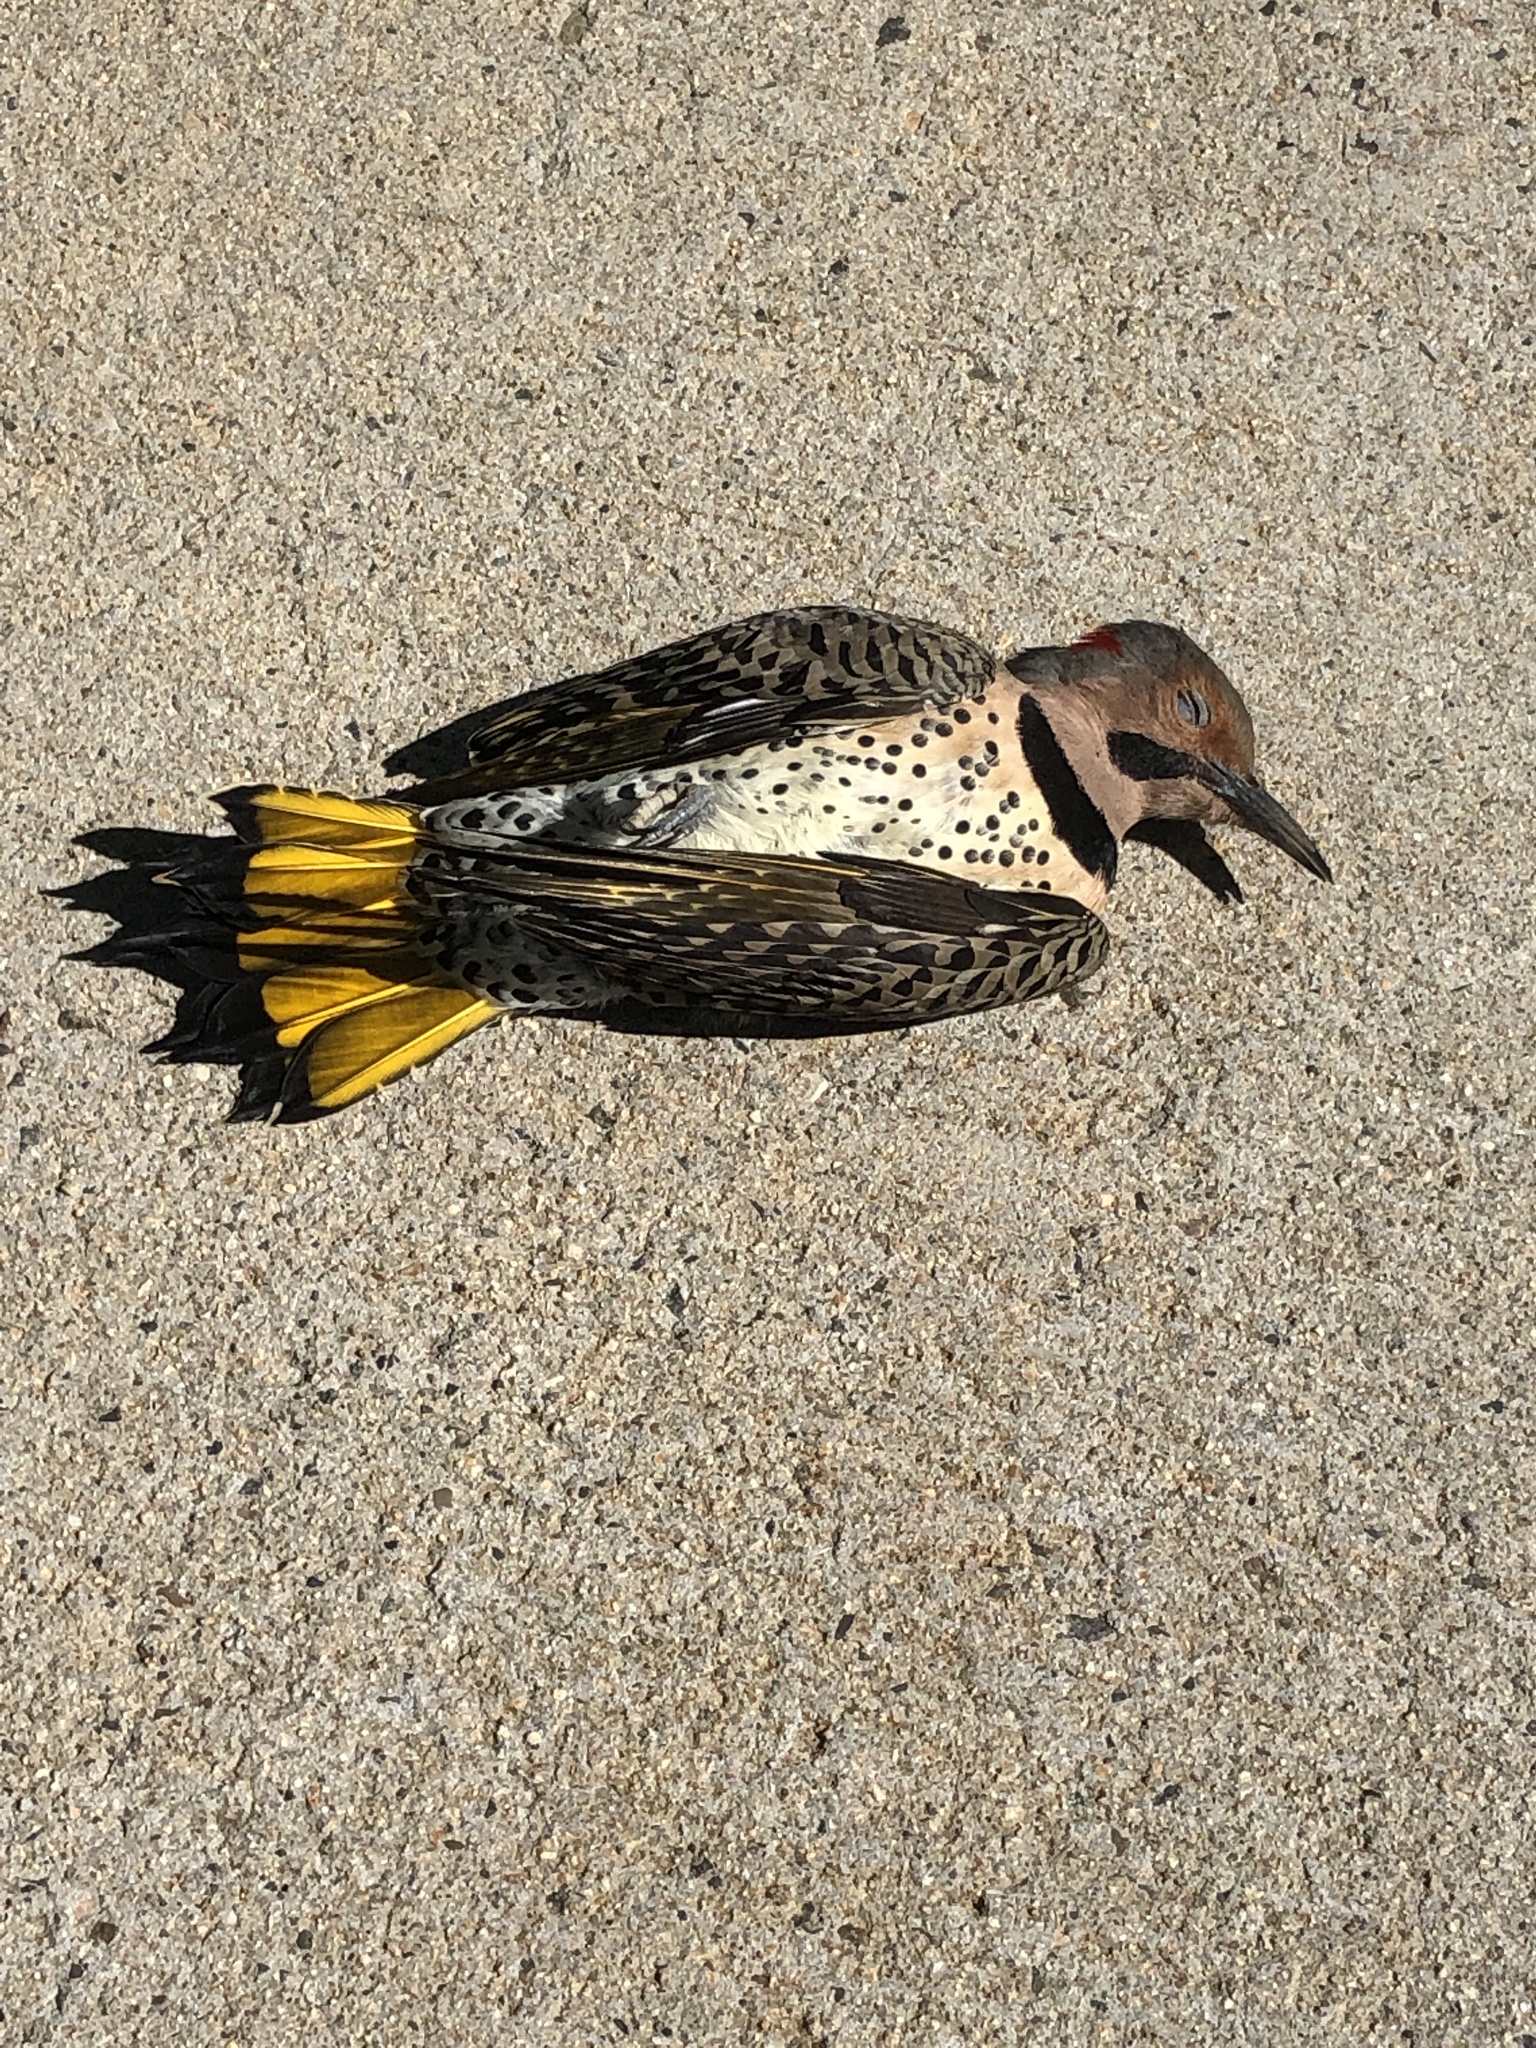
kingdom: Animalia
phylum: Chordata
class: Aves
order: Piciformes
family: Picidae
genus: Colaptes
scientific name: Colaptes auratus
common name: Northern flicker
